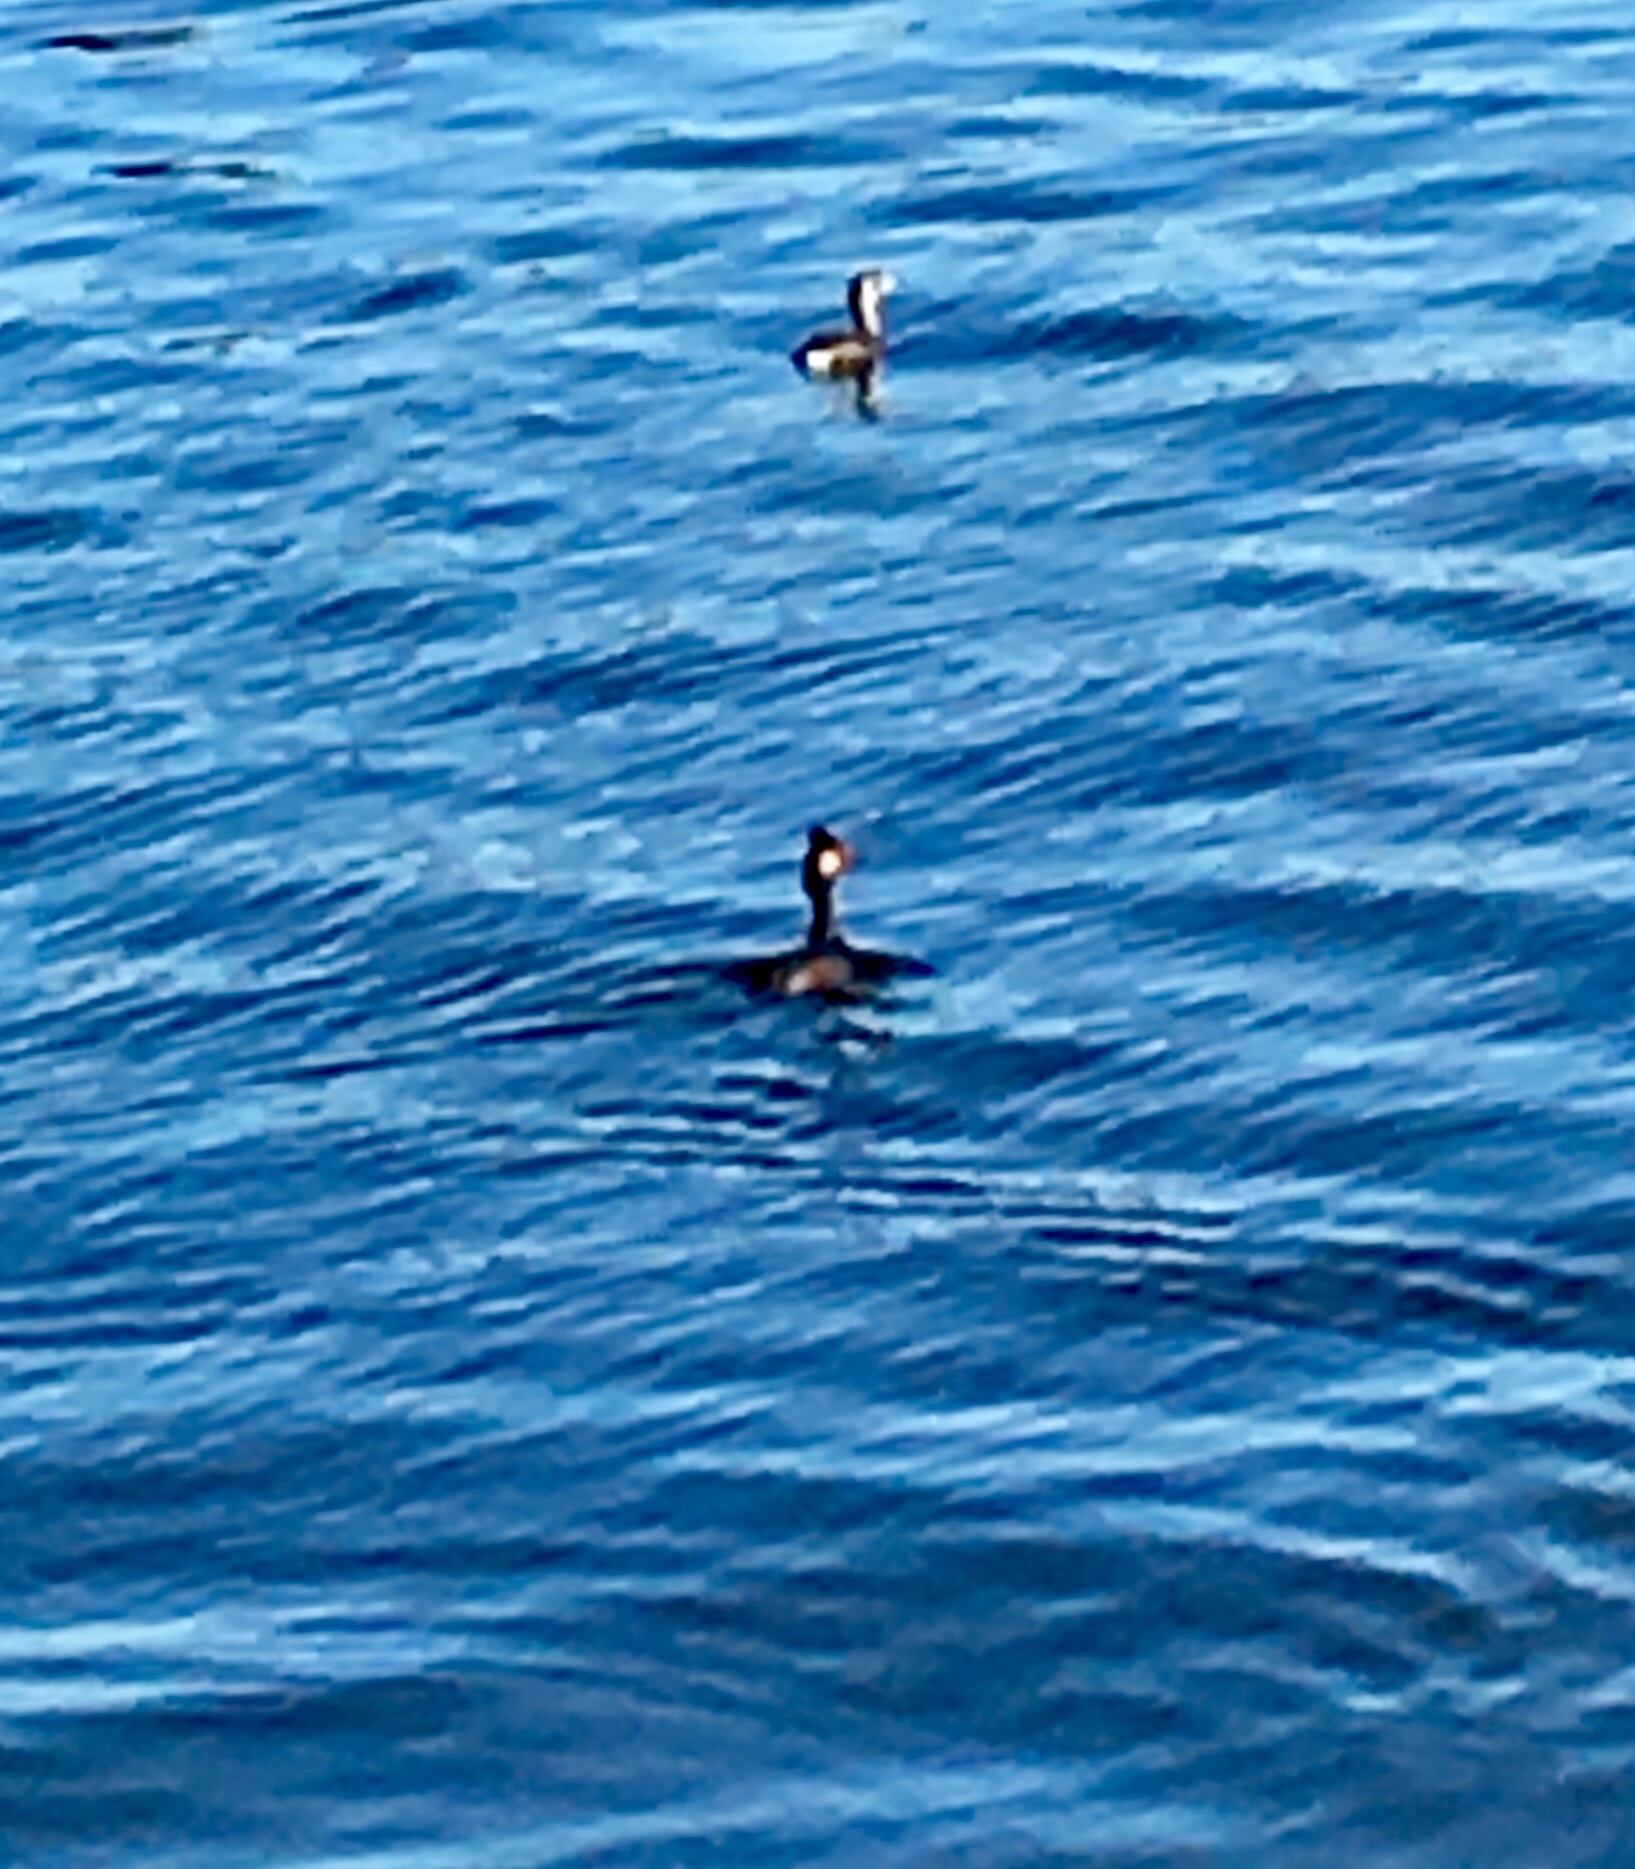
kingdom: Animalia
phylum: Chordata
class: Aves
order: Podicipediformes
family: Podicipedidae
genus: Podiceps
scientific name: Podiceps nigricollis
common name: Black-necked grebe
